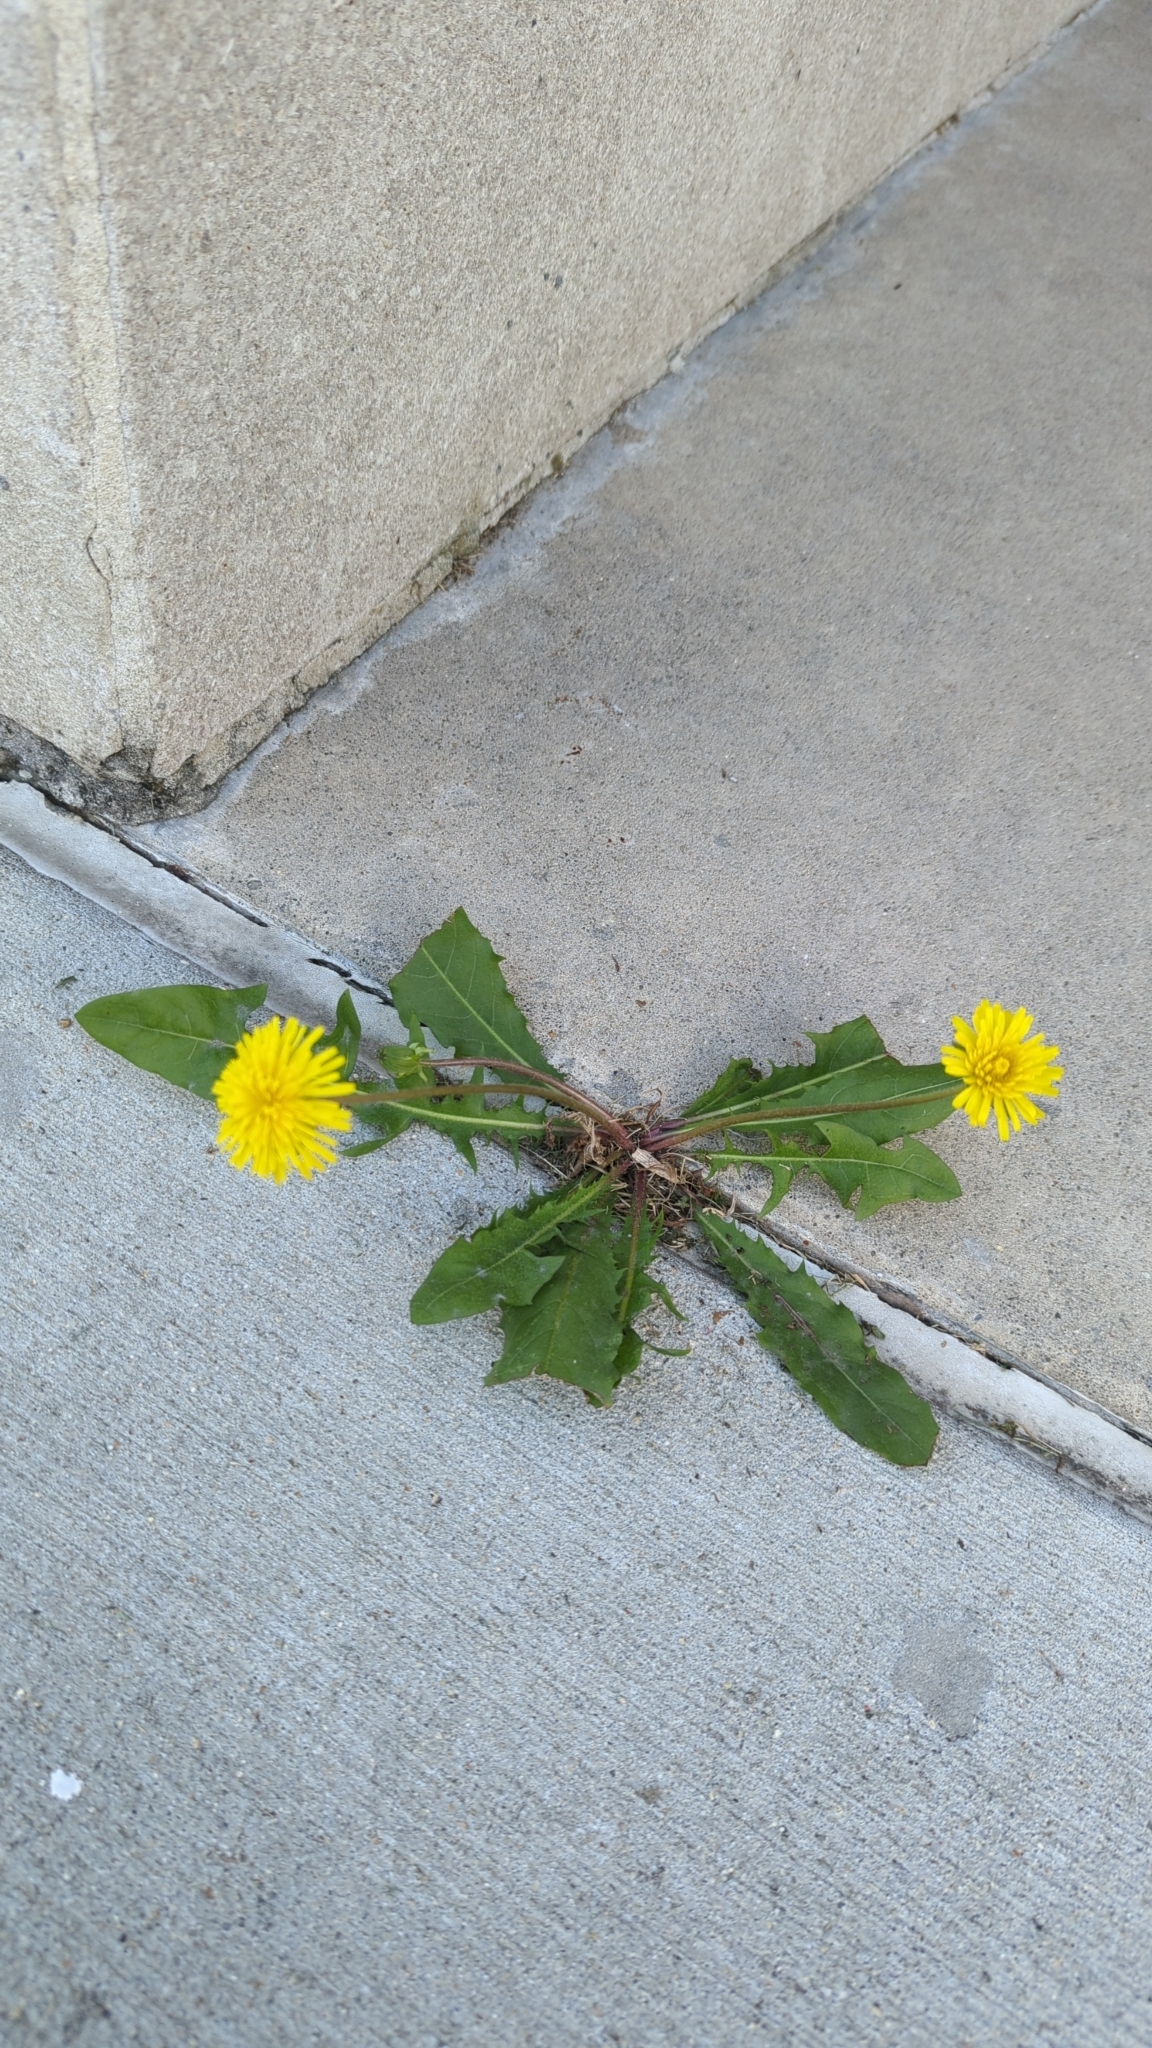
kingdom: Plantae
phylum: Tracheophyta
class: Magnoliopsida
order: Asterales
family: Asteraceae
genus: Taraxacum
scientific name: Taraxacum
